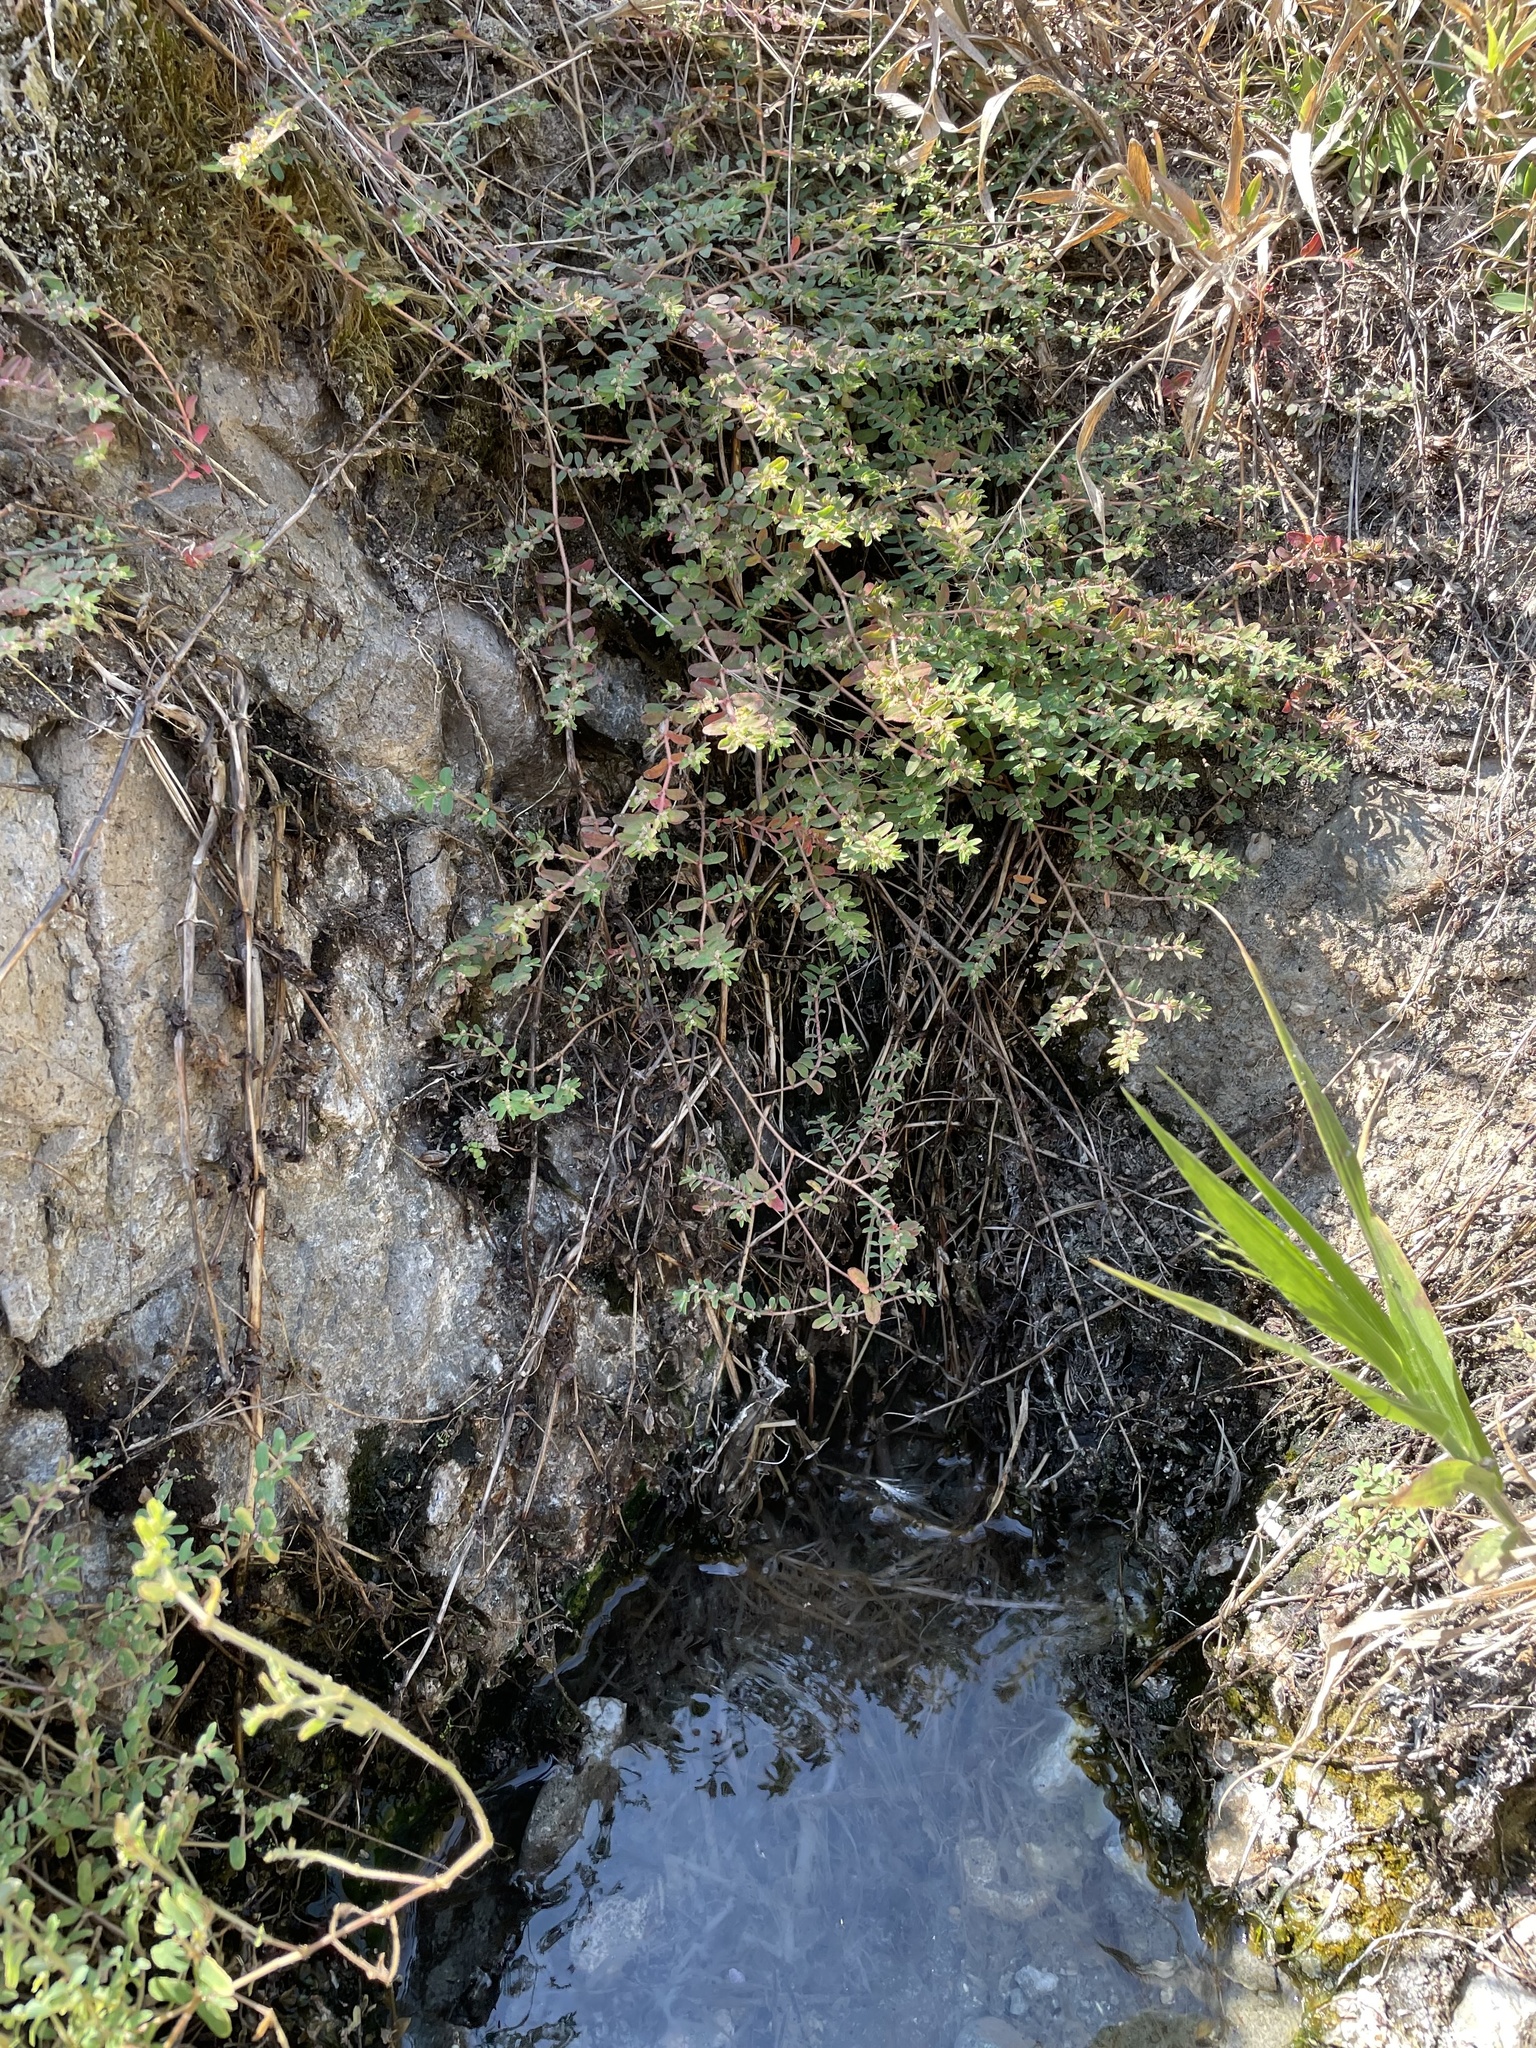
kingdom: Plantae
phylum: Tracheophyta
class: Magnoliopsida
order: Malpighiales
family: Euphorbiaceae
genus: Euphorbia
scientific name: Euphorbia maculata
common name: Spotted spurge
